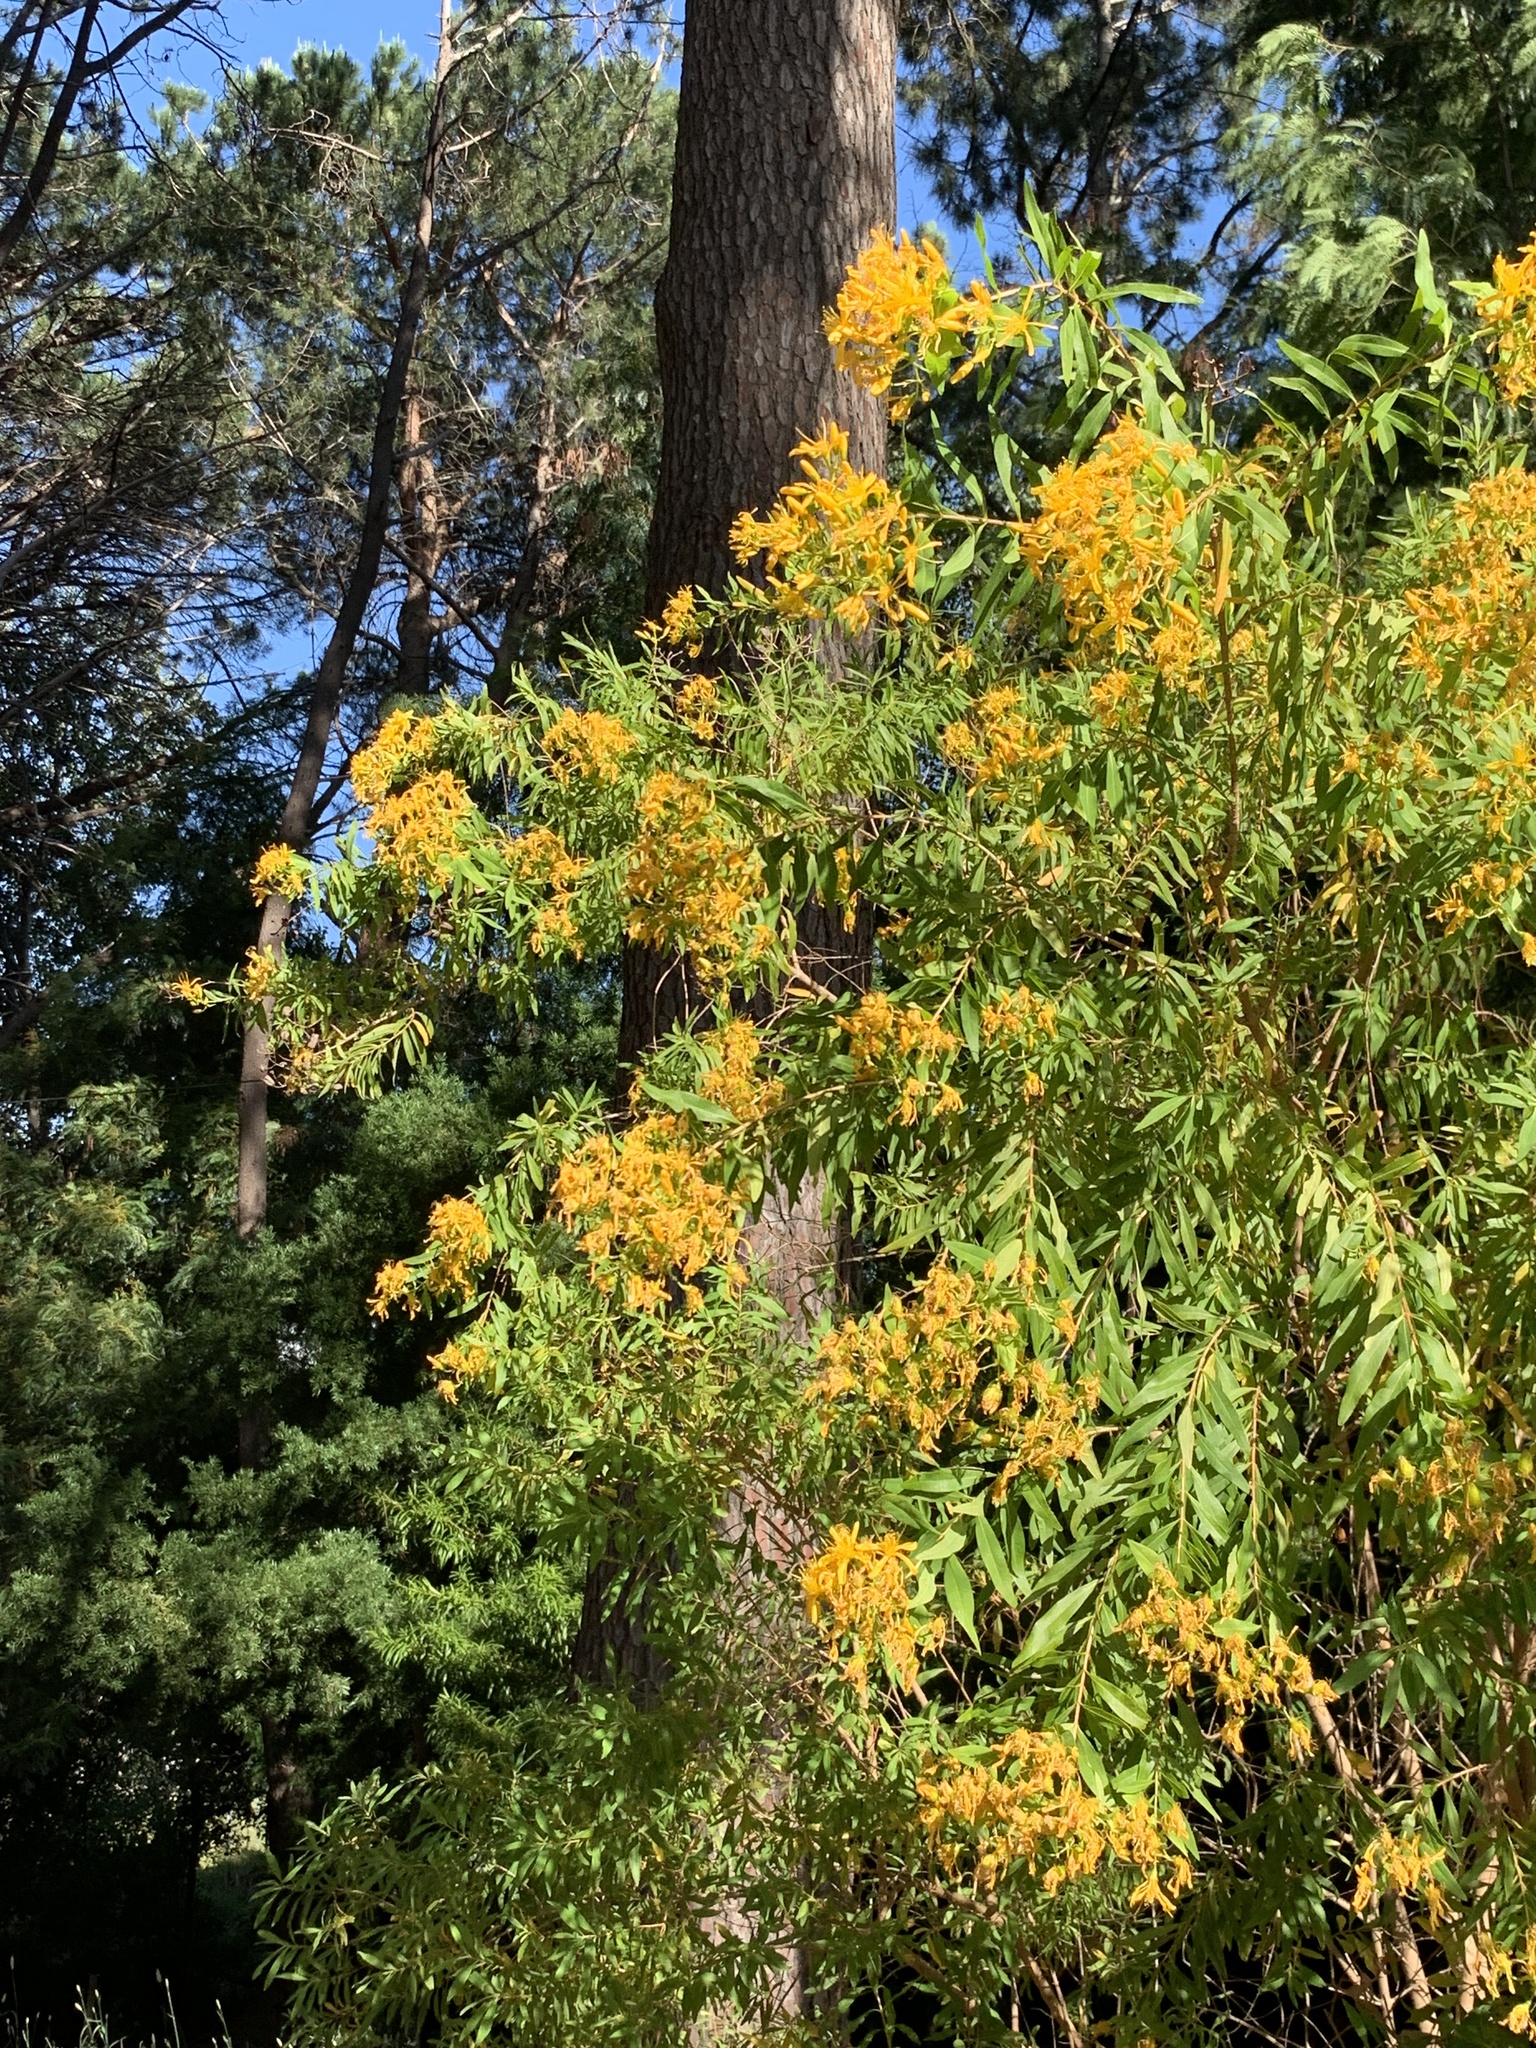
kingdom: Plantae
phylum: Tracheophyta
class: Magnoliopsida
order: Malpighiales
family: Hypericaceae
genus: Hypericum
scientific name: Hypericum canariense
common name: Canary island st. johnswort
